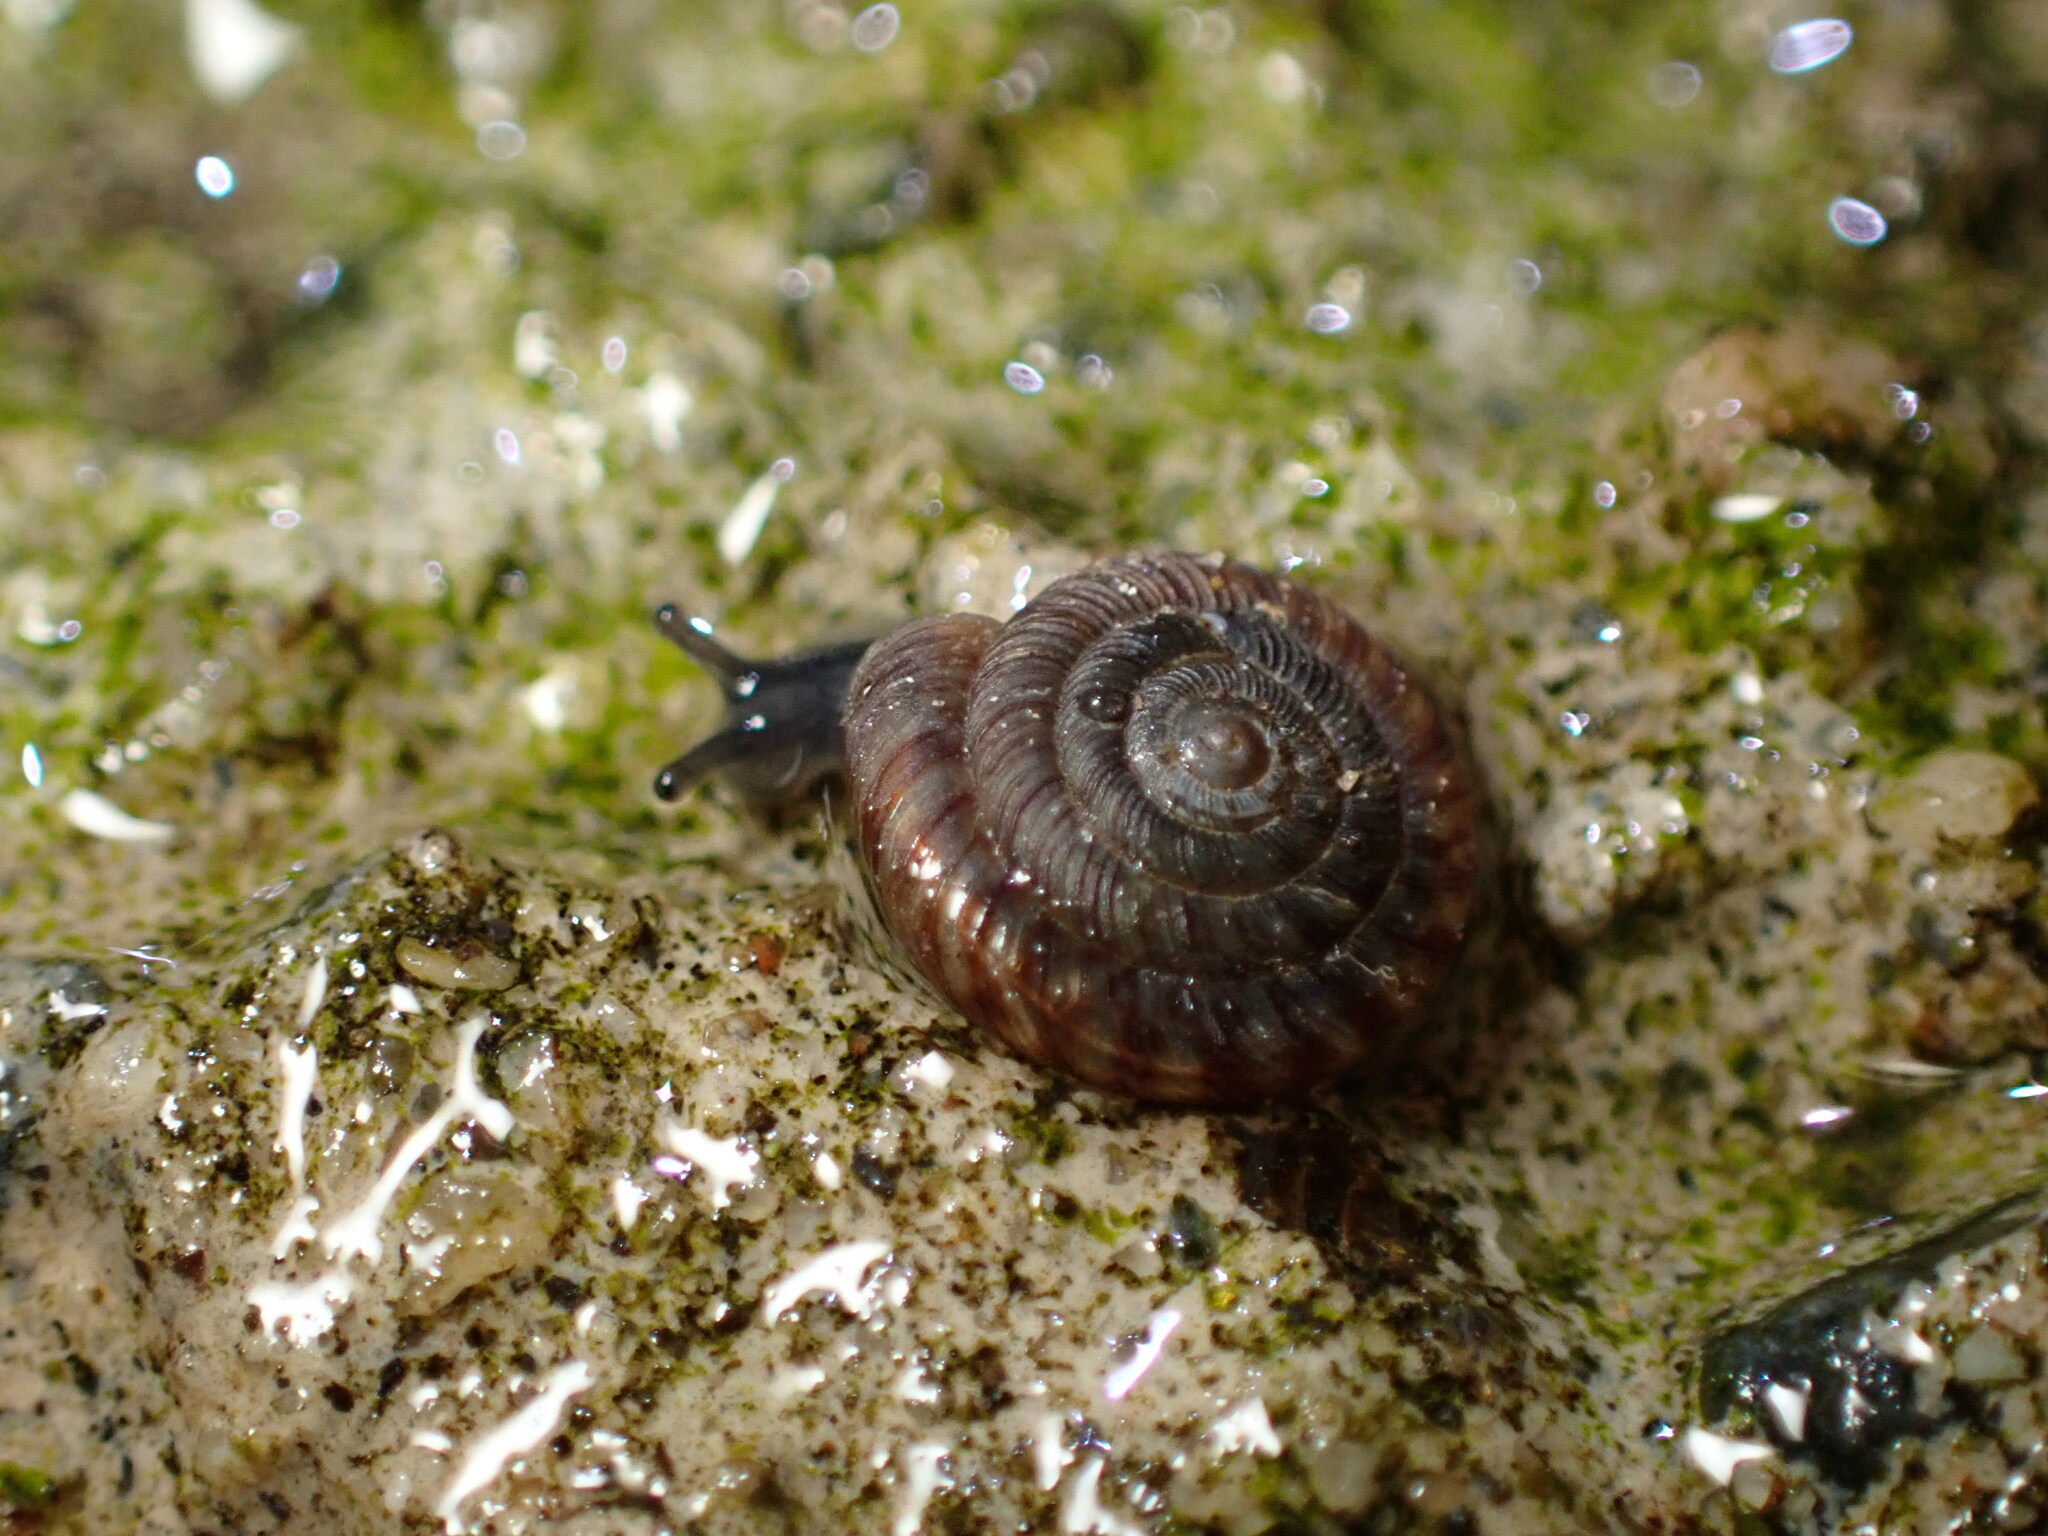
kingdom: Animalia
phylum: Mollusca
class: Gastropoda
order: Stylommatophora
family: Discidae
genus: Discus
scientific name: Discus rotundatus
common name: Rounded snail
